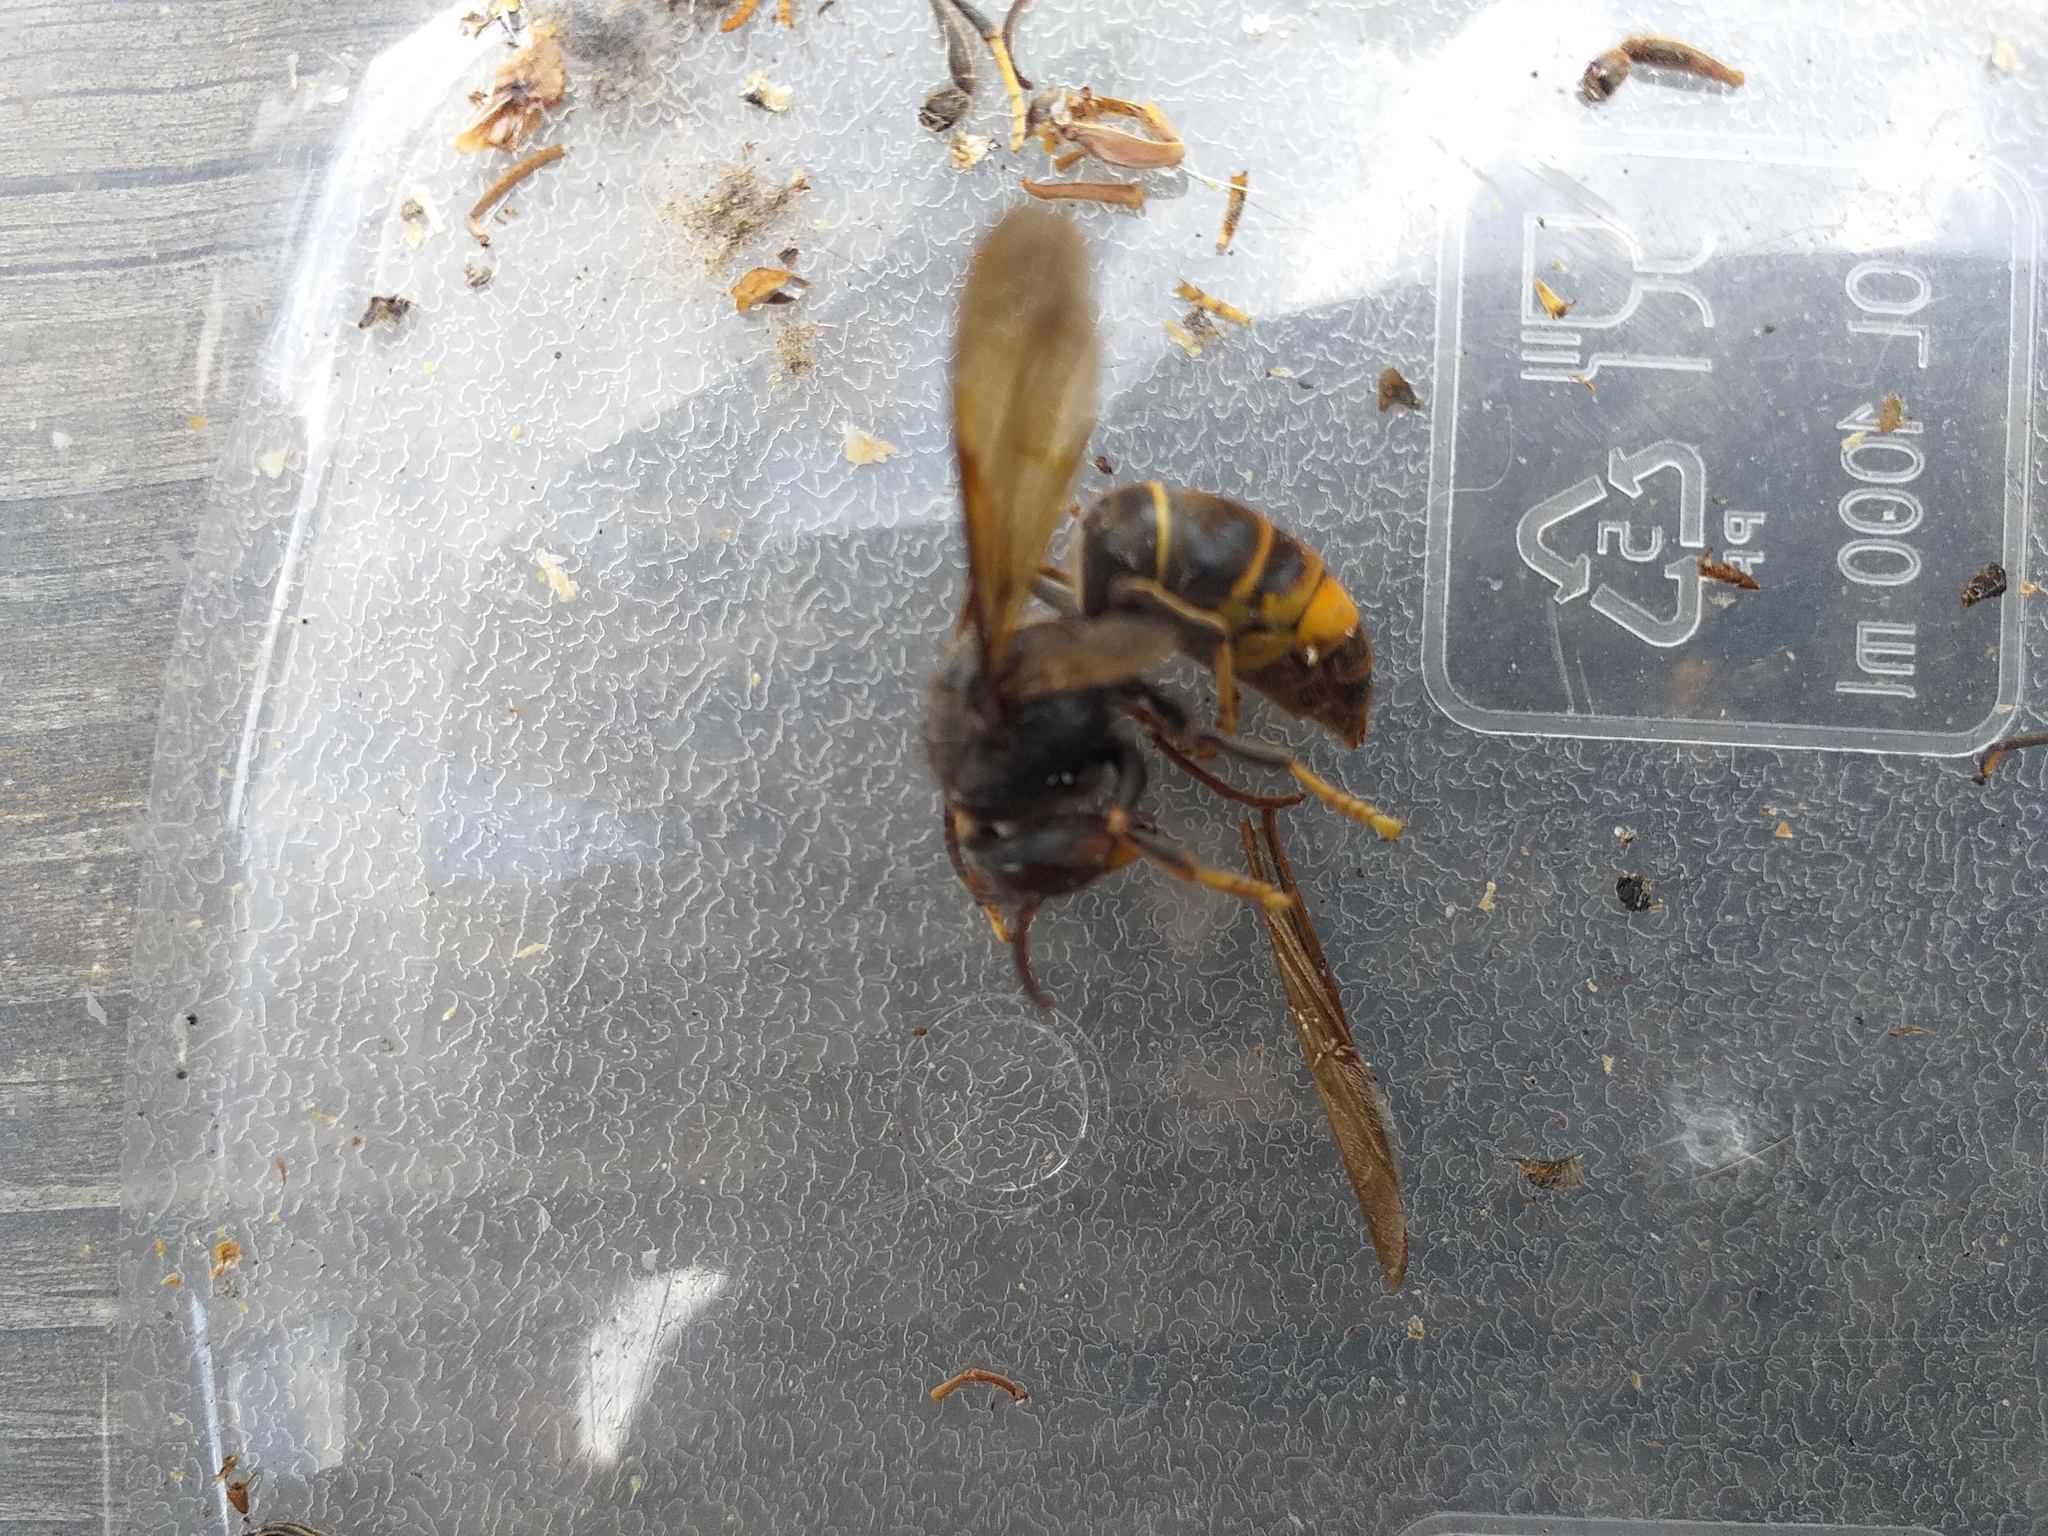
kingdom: Animalia
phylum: Arthropoda
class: Insecta
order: Hymenoptera
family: Vespidae
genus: Vespa
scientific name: Vespa velutina
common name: Asian hornet
